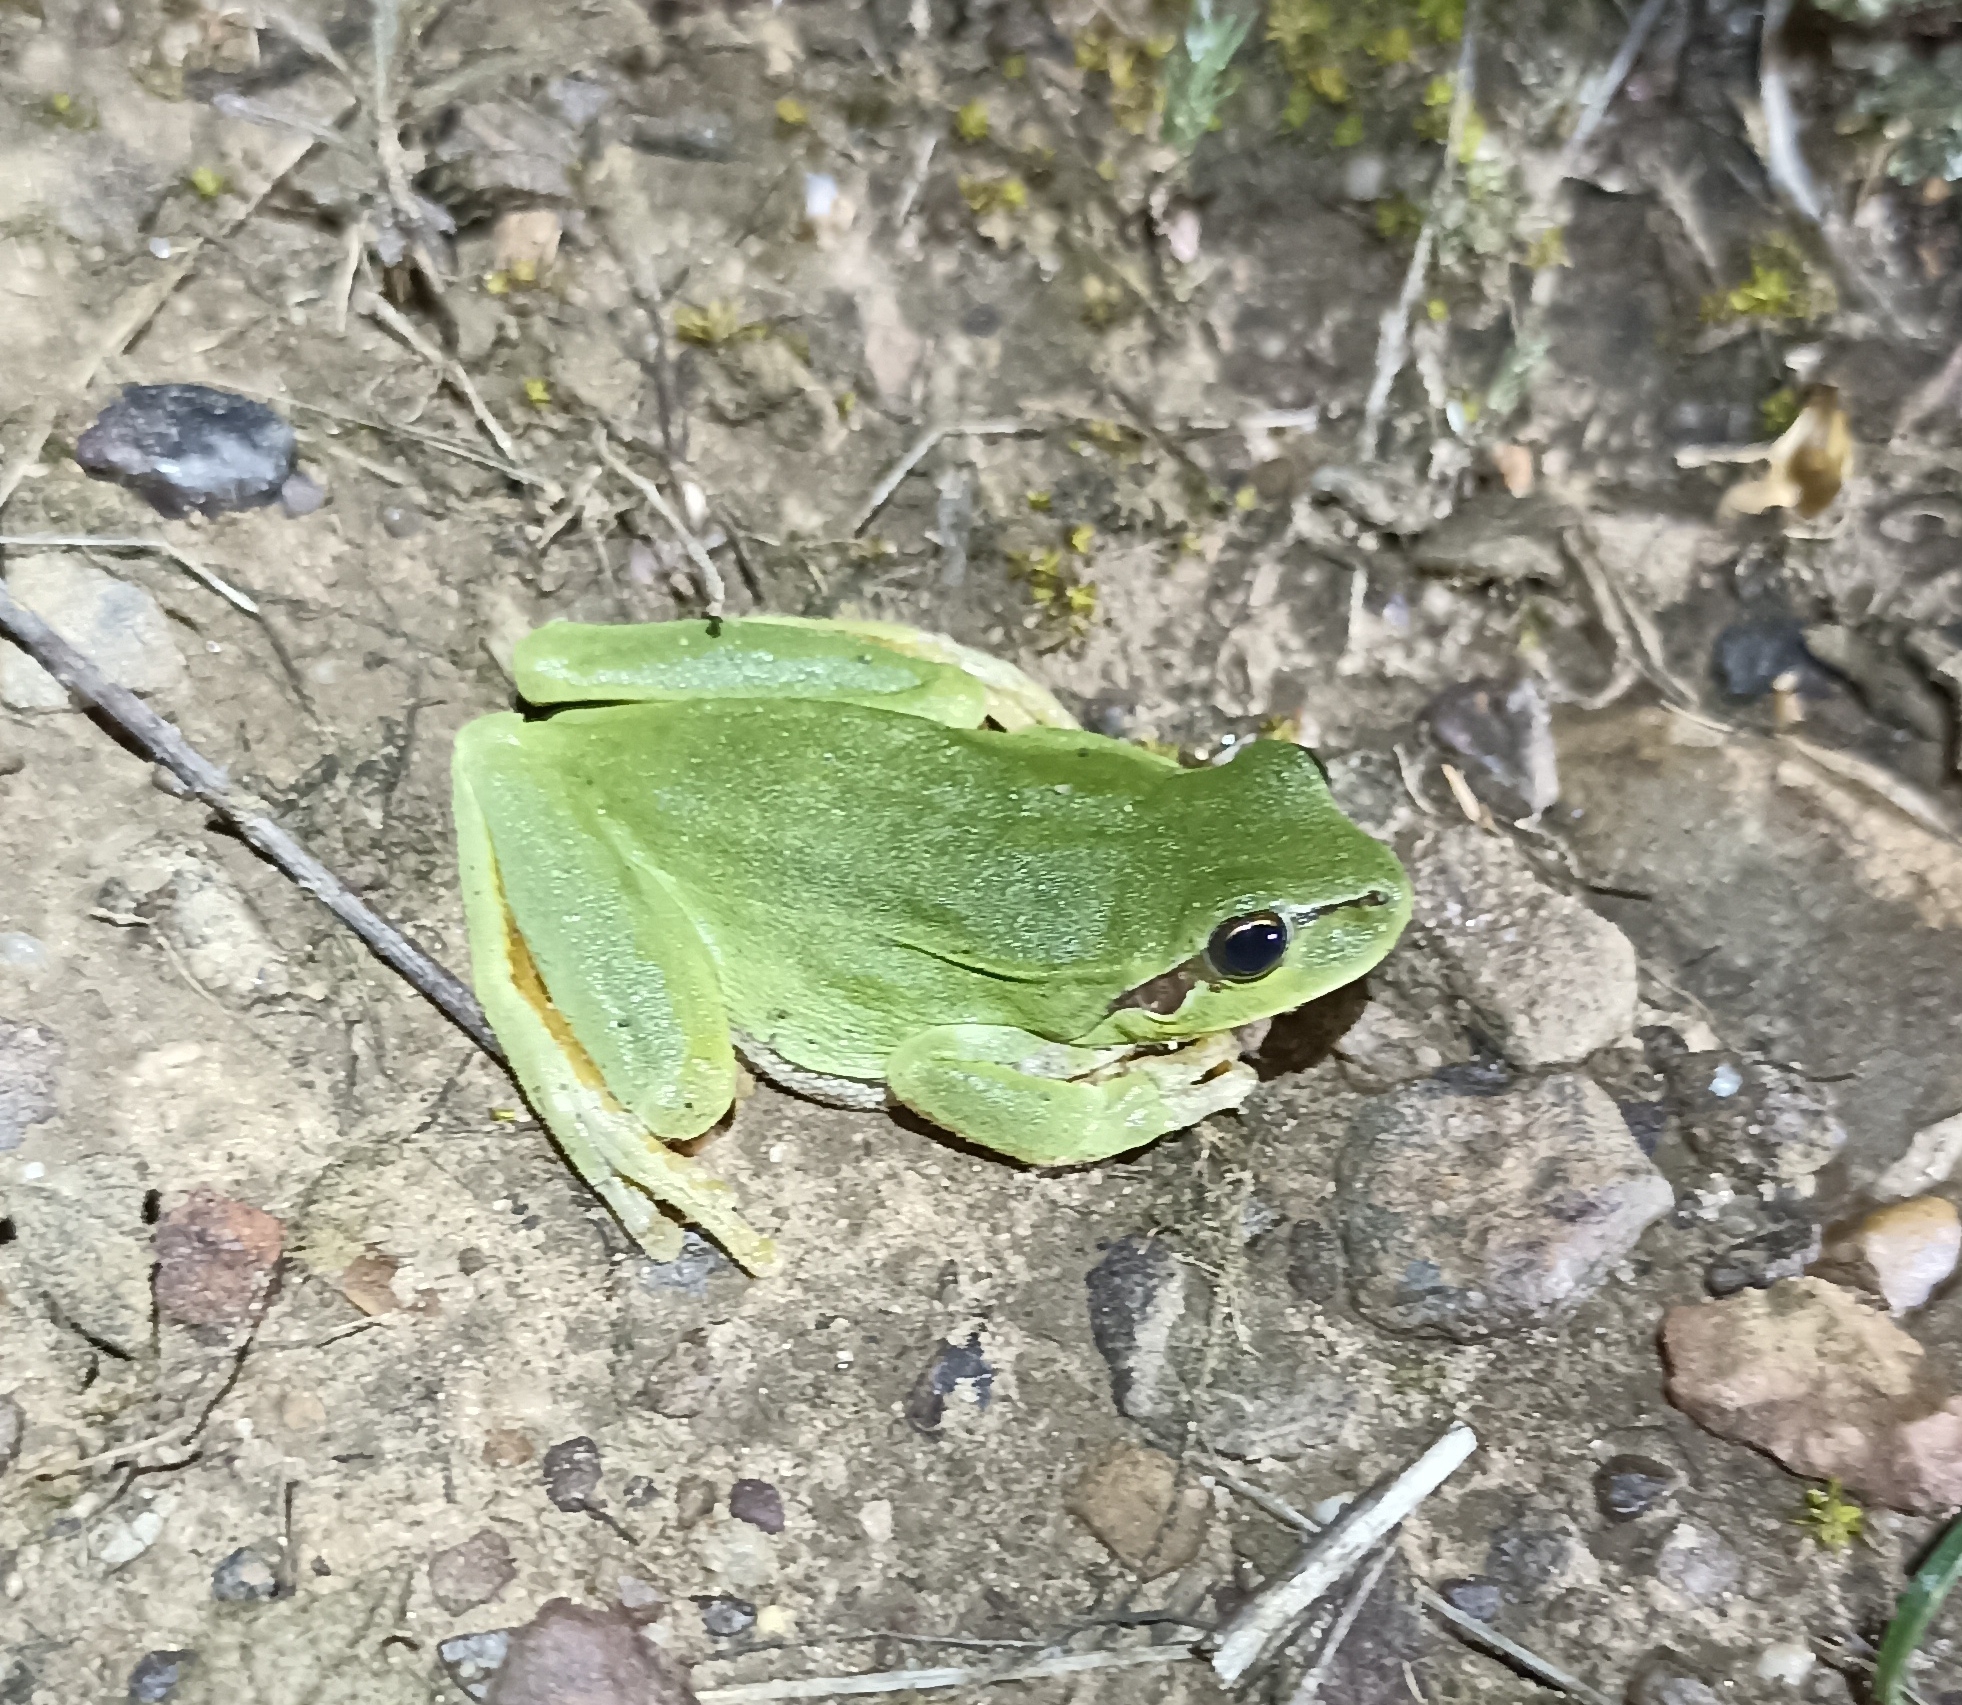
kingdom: Animalia
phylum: Chordata
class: Amphibia
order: Anura
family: Hylidae
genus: Hyla
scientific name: Hyla meridionalis
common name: Stripeless tree frog
